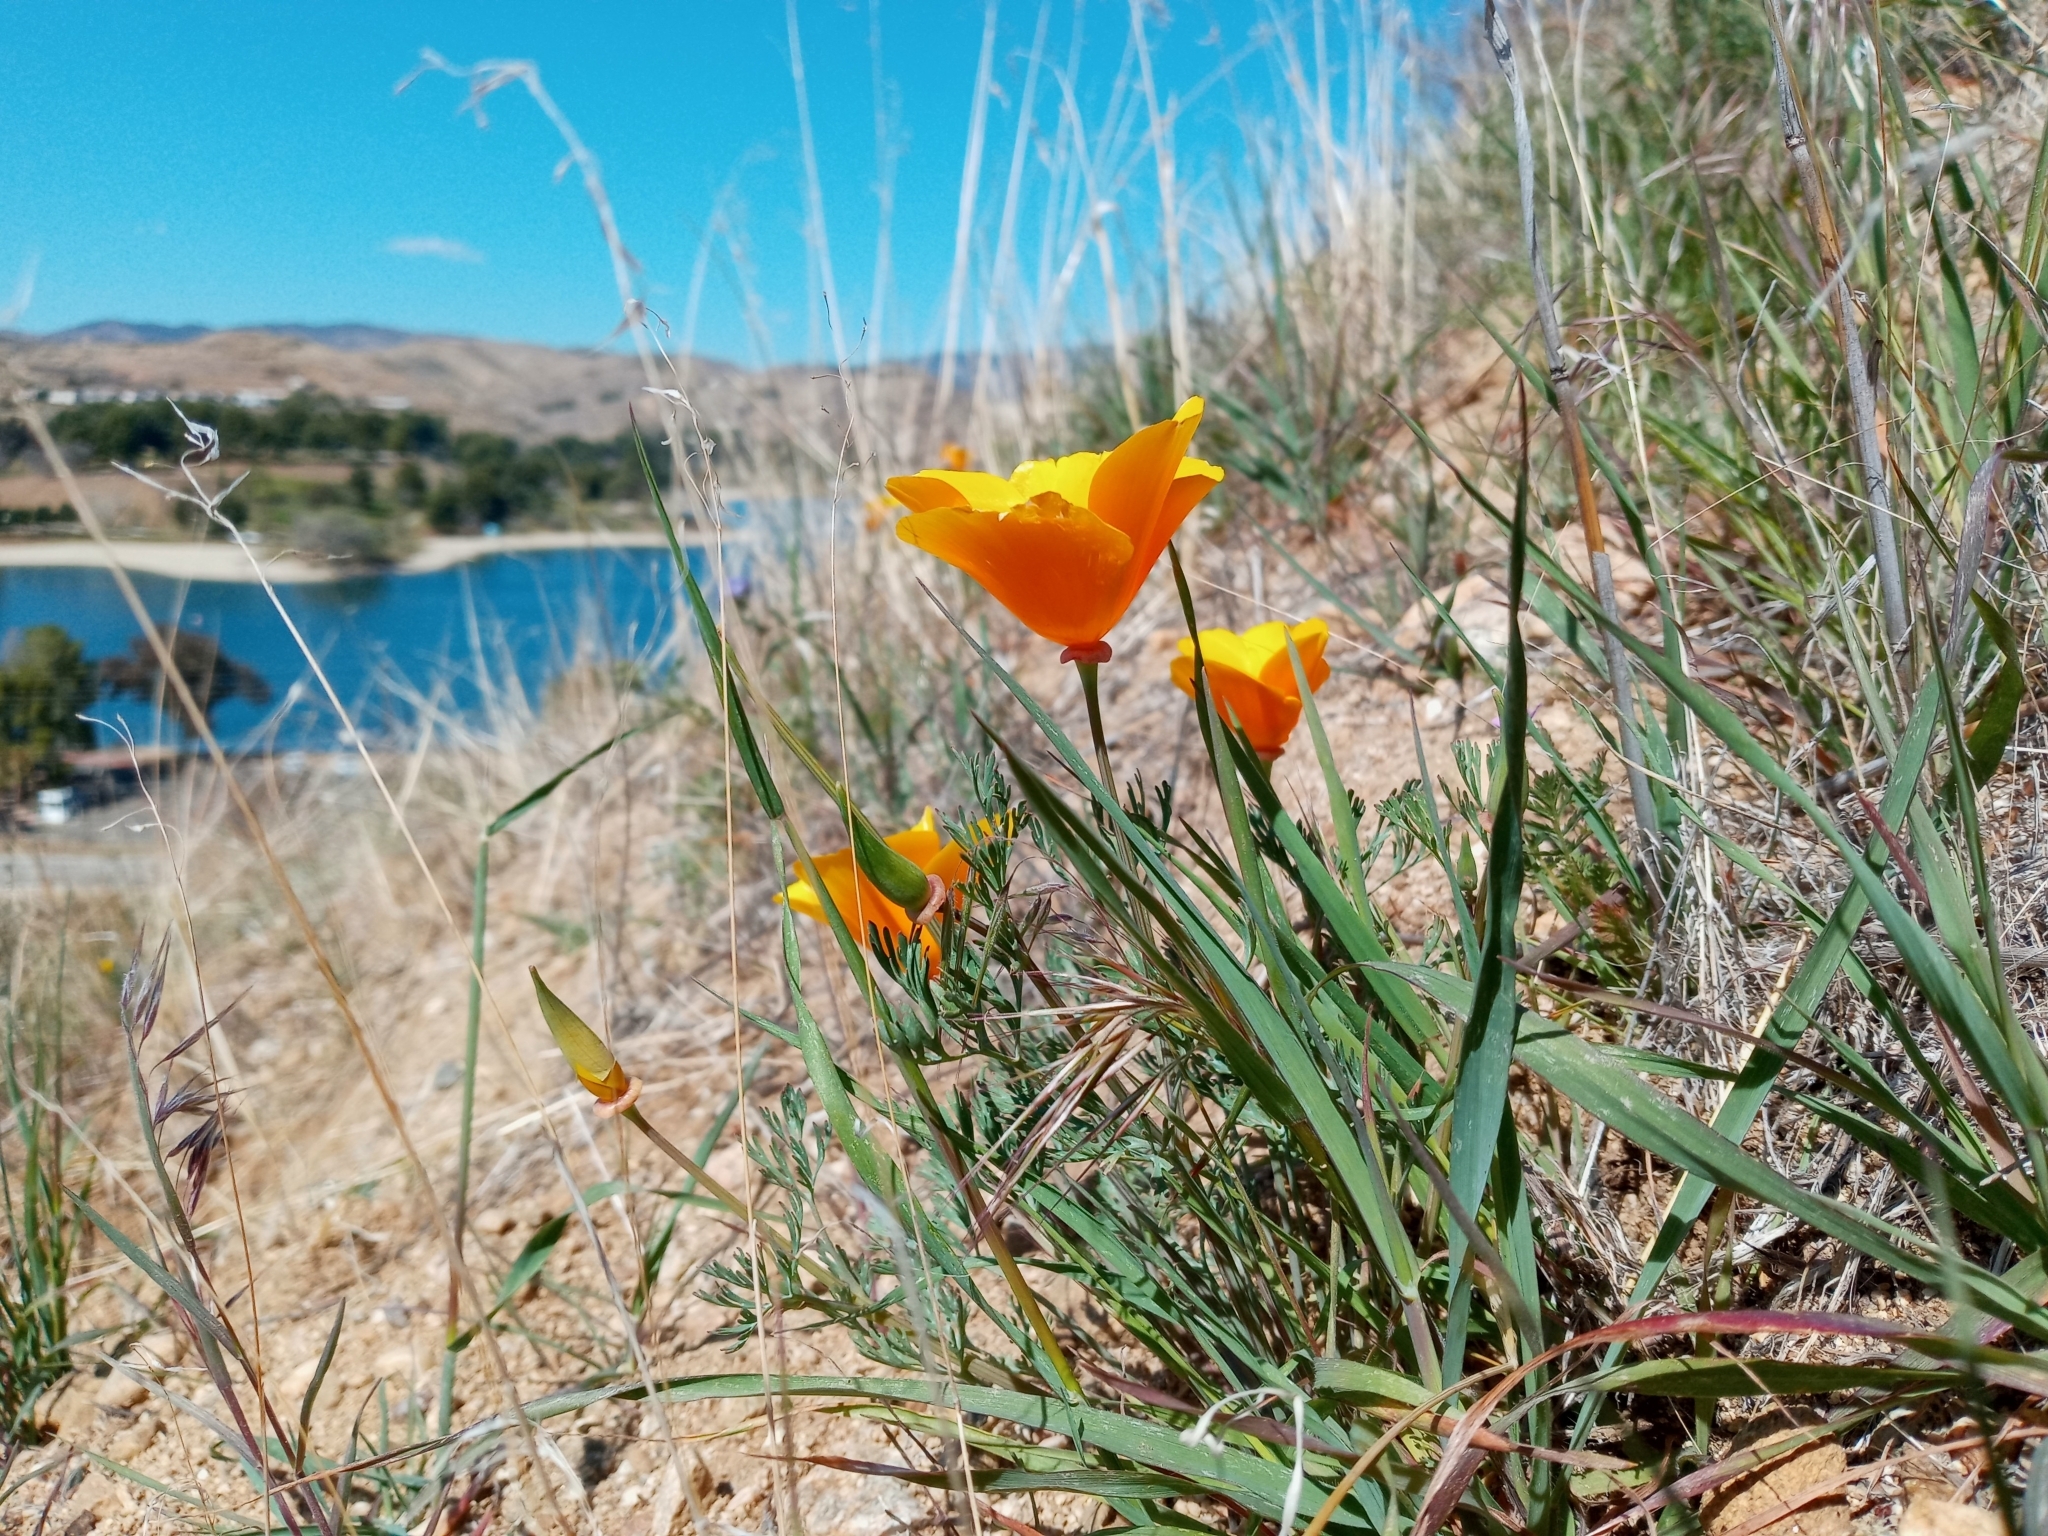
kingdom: Plantae
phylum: Tracheophyta
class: Magnoliopsida
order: Ranunculales
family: Papaveraceae
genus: Eschscholzia
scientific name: Eschscholzia californica
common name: California poppy
